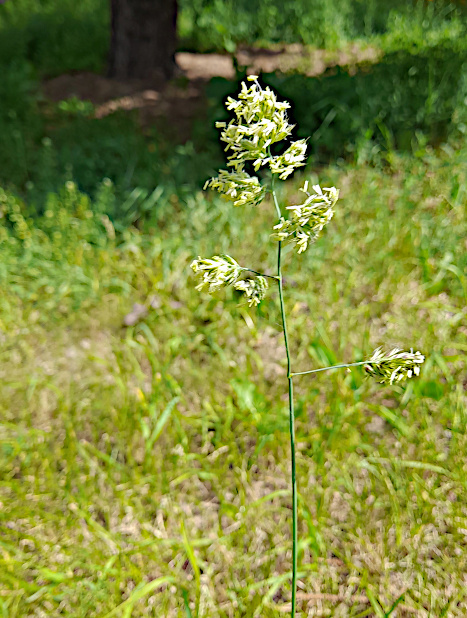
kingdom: Plantae
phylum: Tracheophyta
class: Liliopsida
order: Poales
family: Poaceae
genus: Dactylis
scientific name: Dactylis glomerata
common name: Orchardgrass
